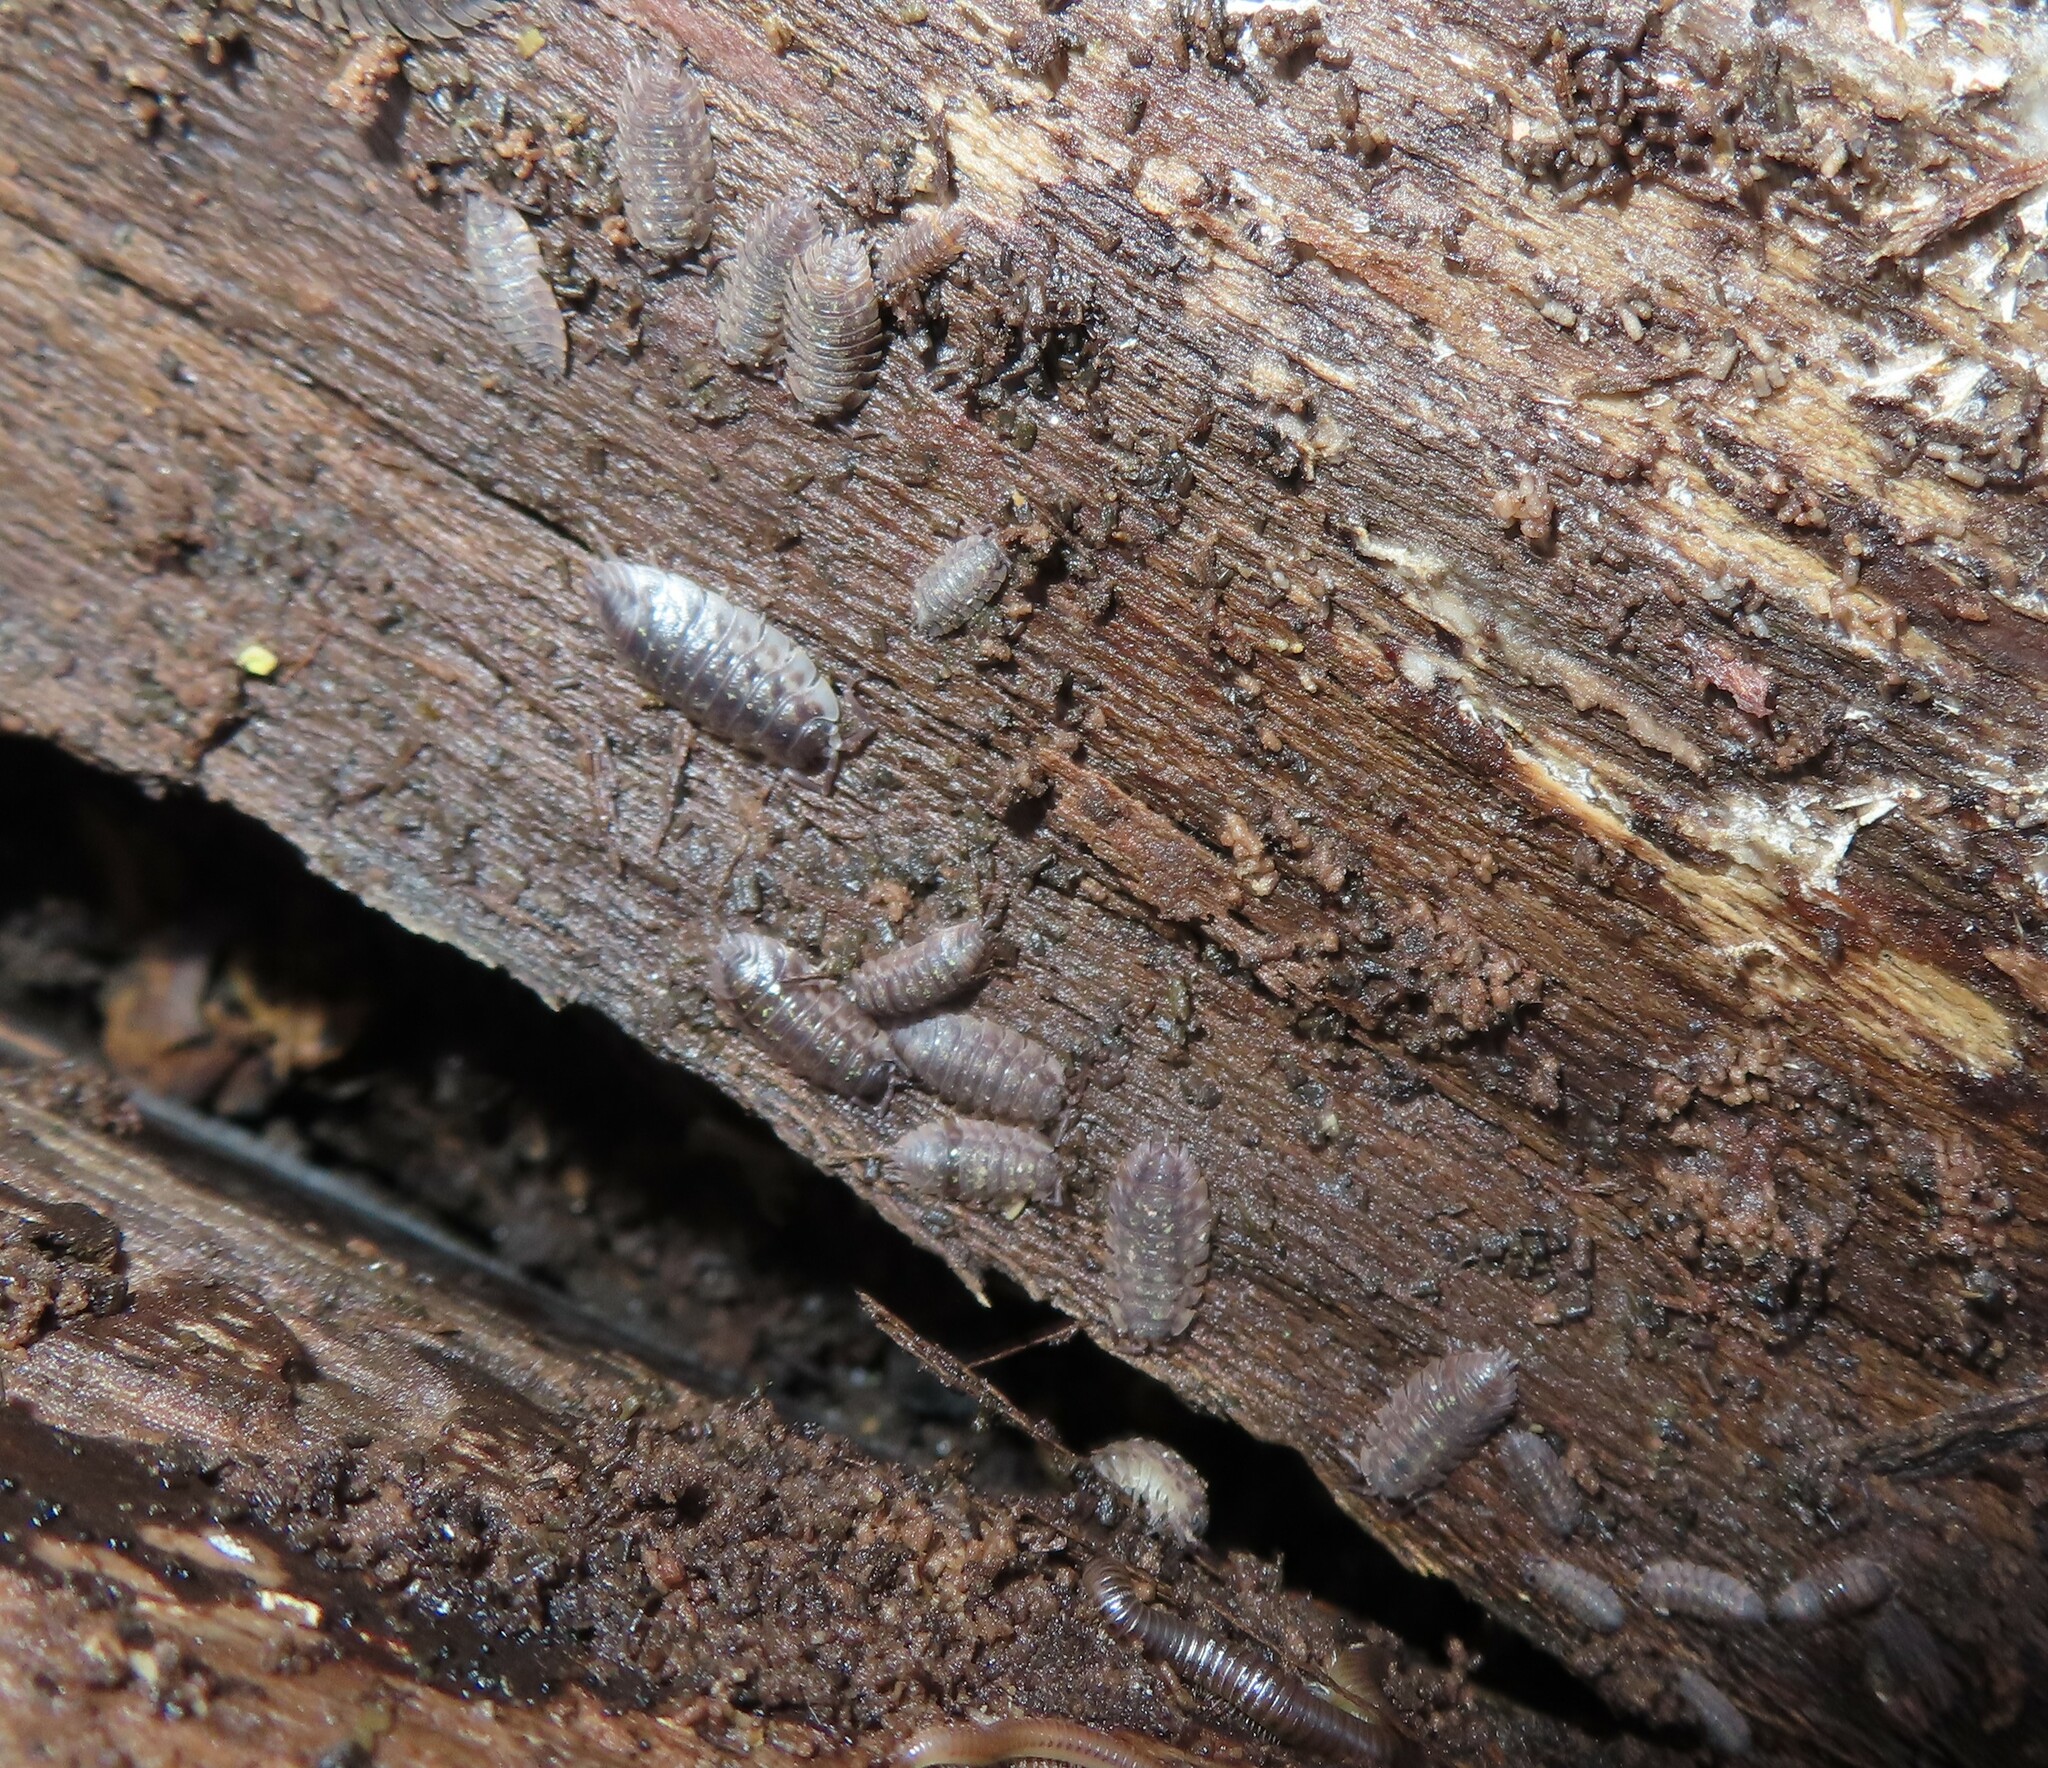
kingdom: Animalia
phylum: Arthropoda
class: Malacostraca
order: Isopoda
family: Oniscidae
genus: Oniscus
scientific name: Oniscus asellus
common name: Common shiny woodlouse
